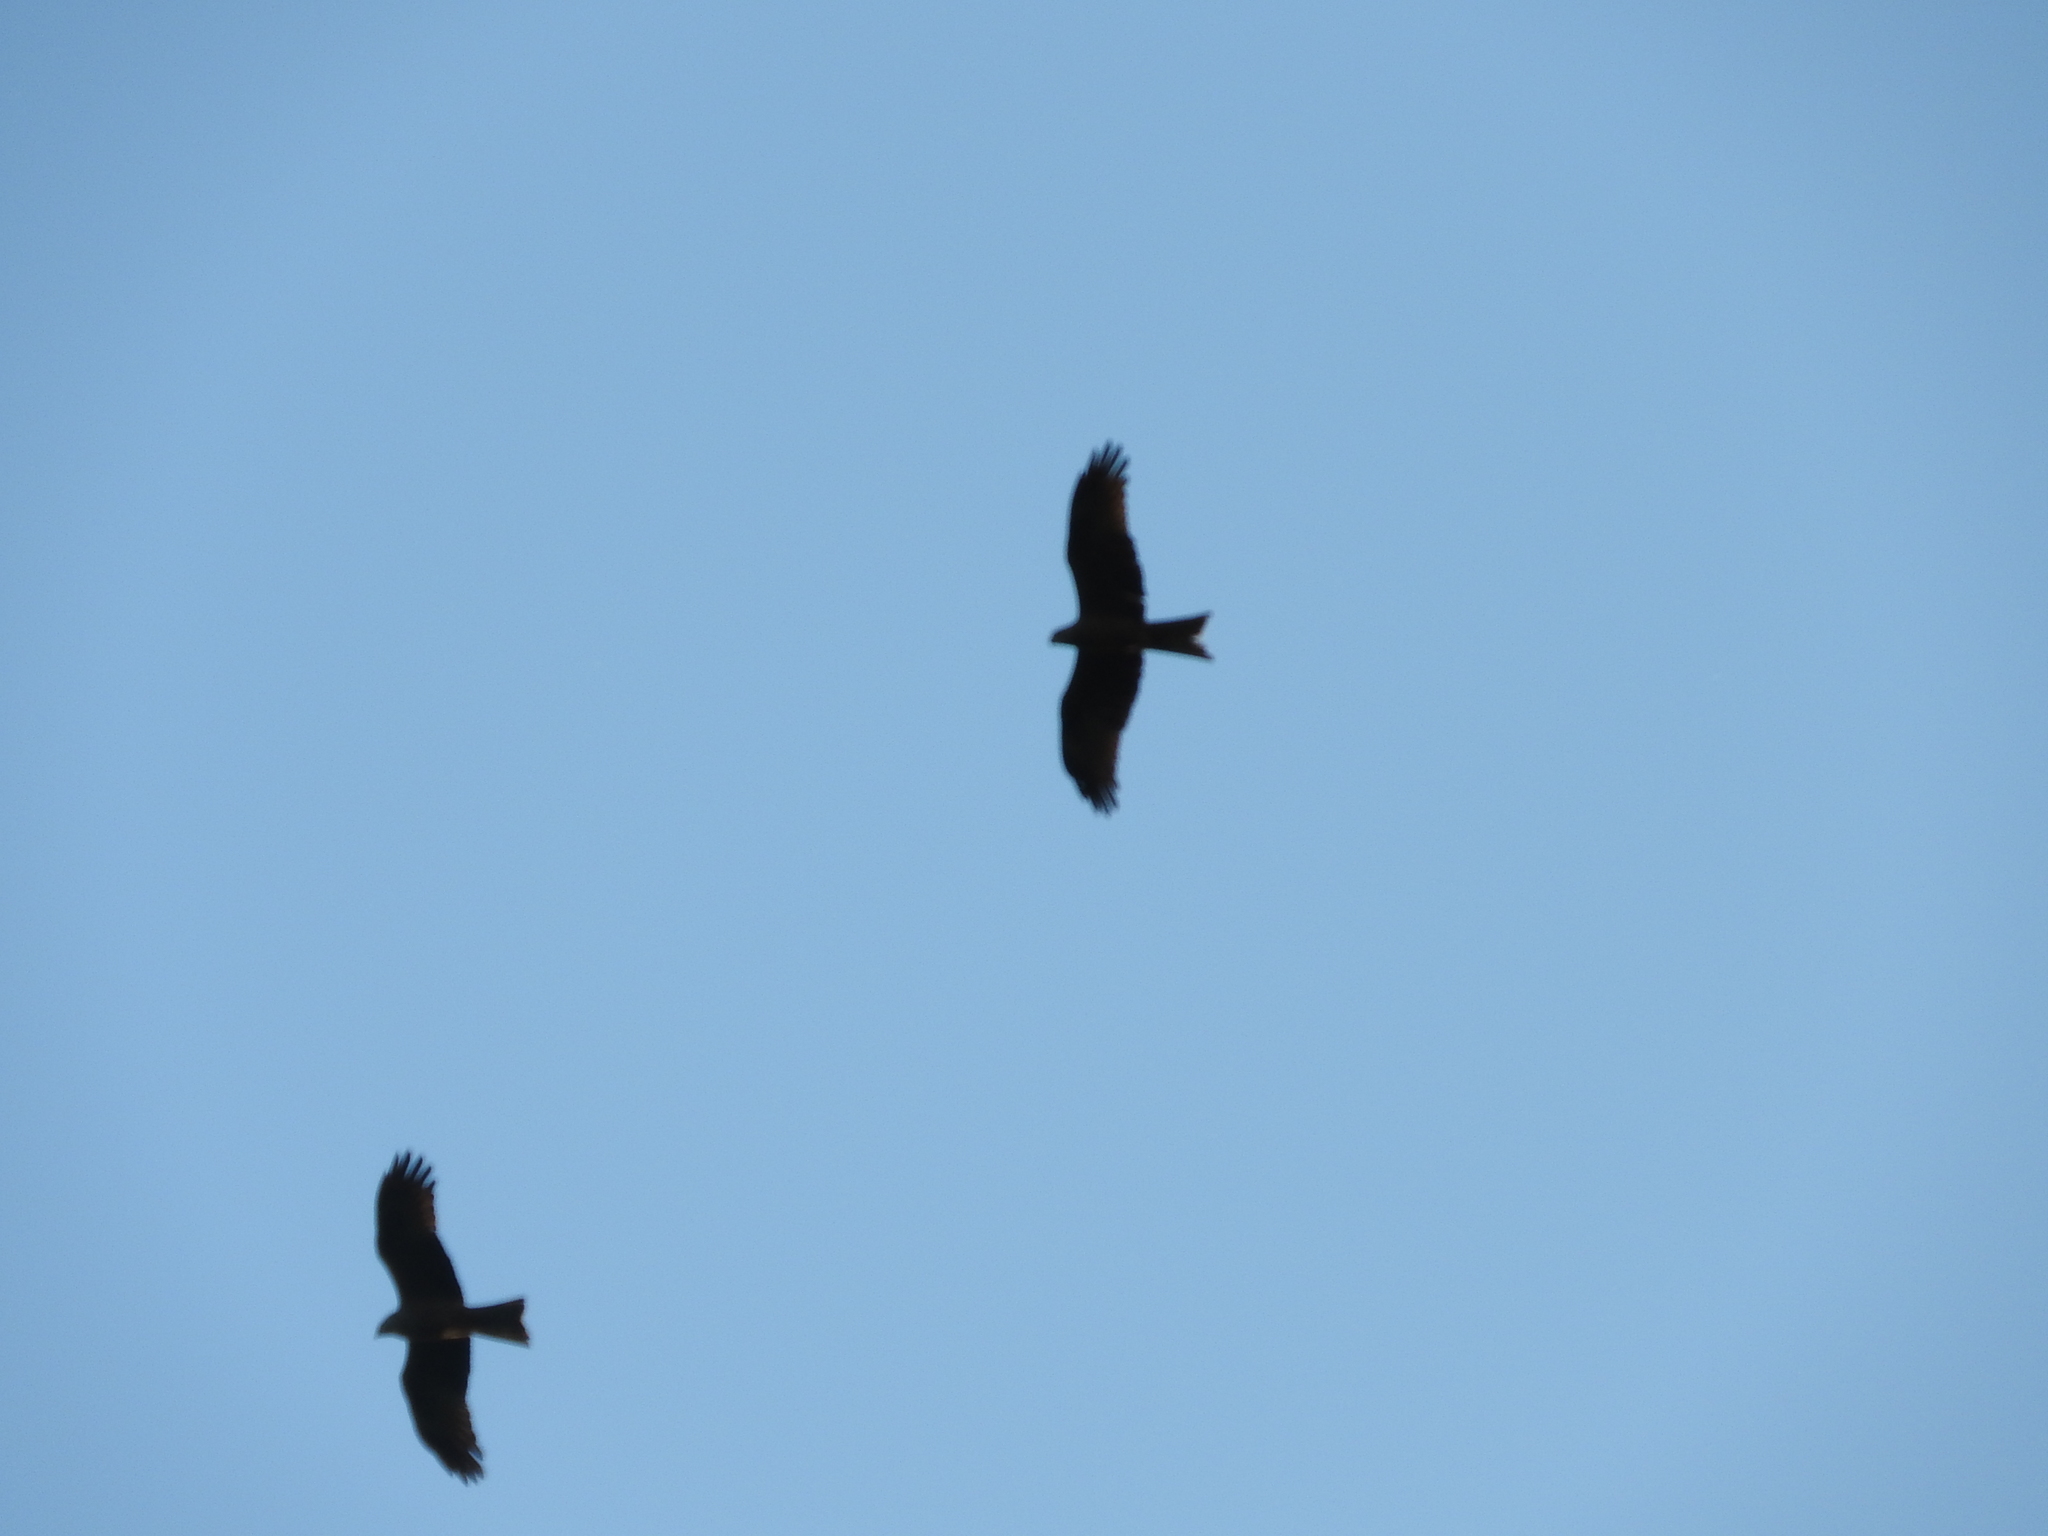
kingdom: Animalia
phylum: Chordata
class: Aves
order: Accipitriformes
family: Accipitridae
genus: Milvus
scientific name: Milvus migrans
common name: Black kite
